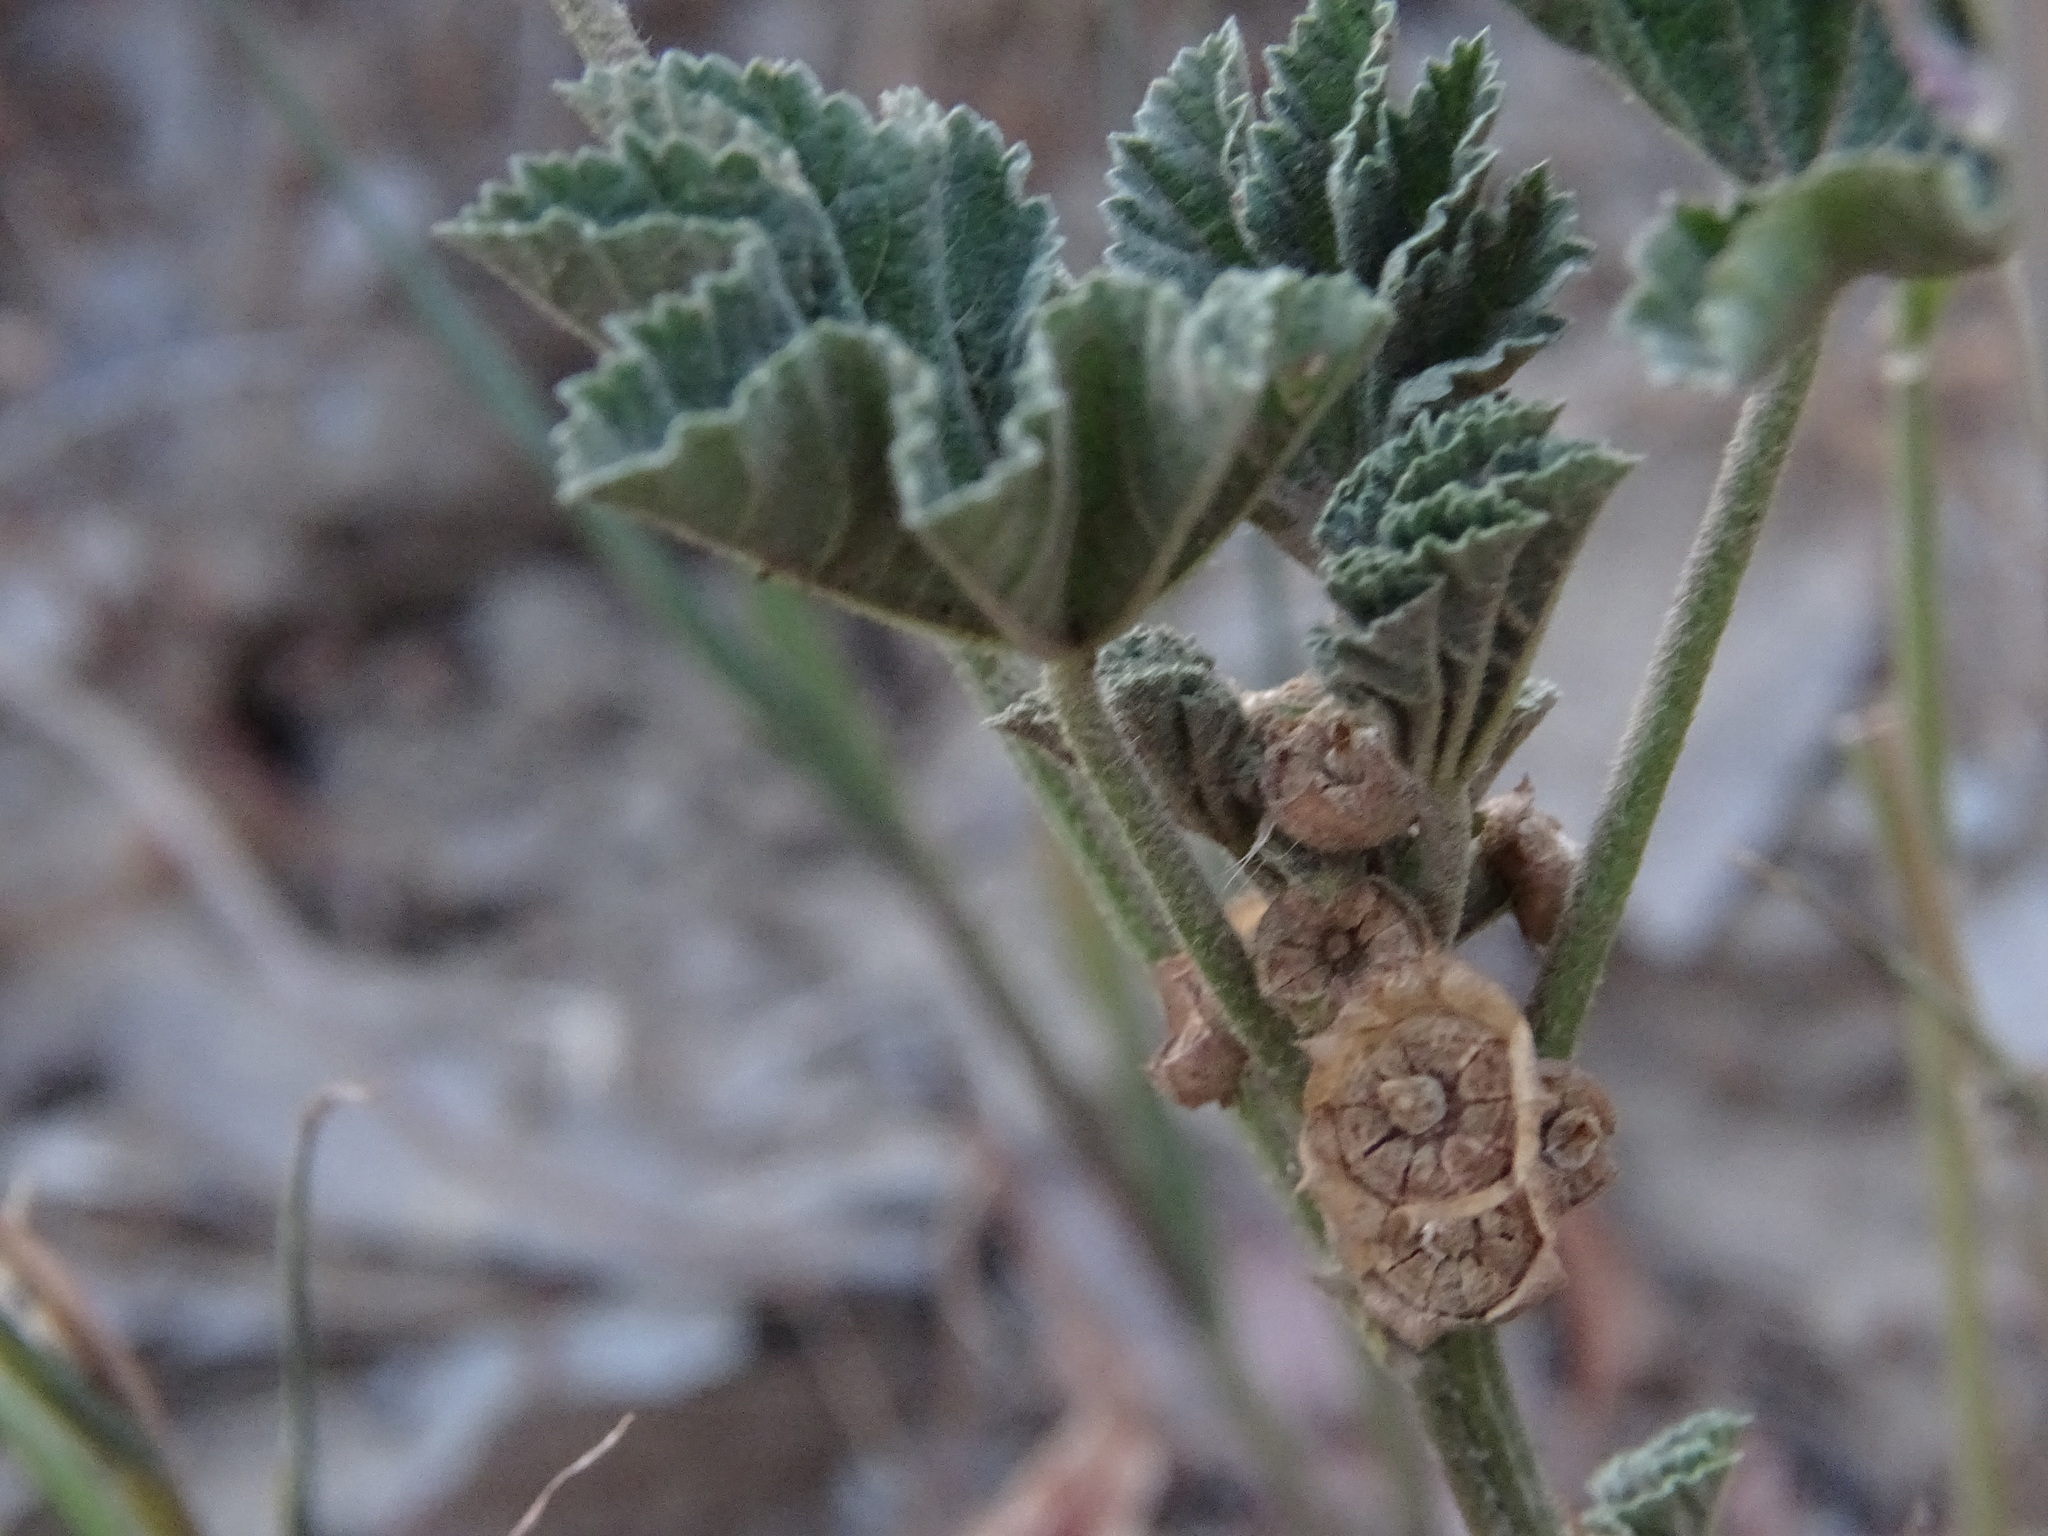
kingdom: Plantae
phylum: Tracheophyta
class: Magnoliopsida
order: Malvales
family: Malvaceae
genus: Malva
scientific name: Malva parviflora
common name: Least mallow
